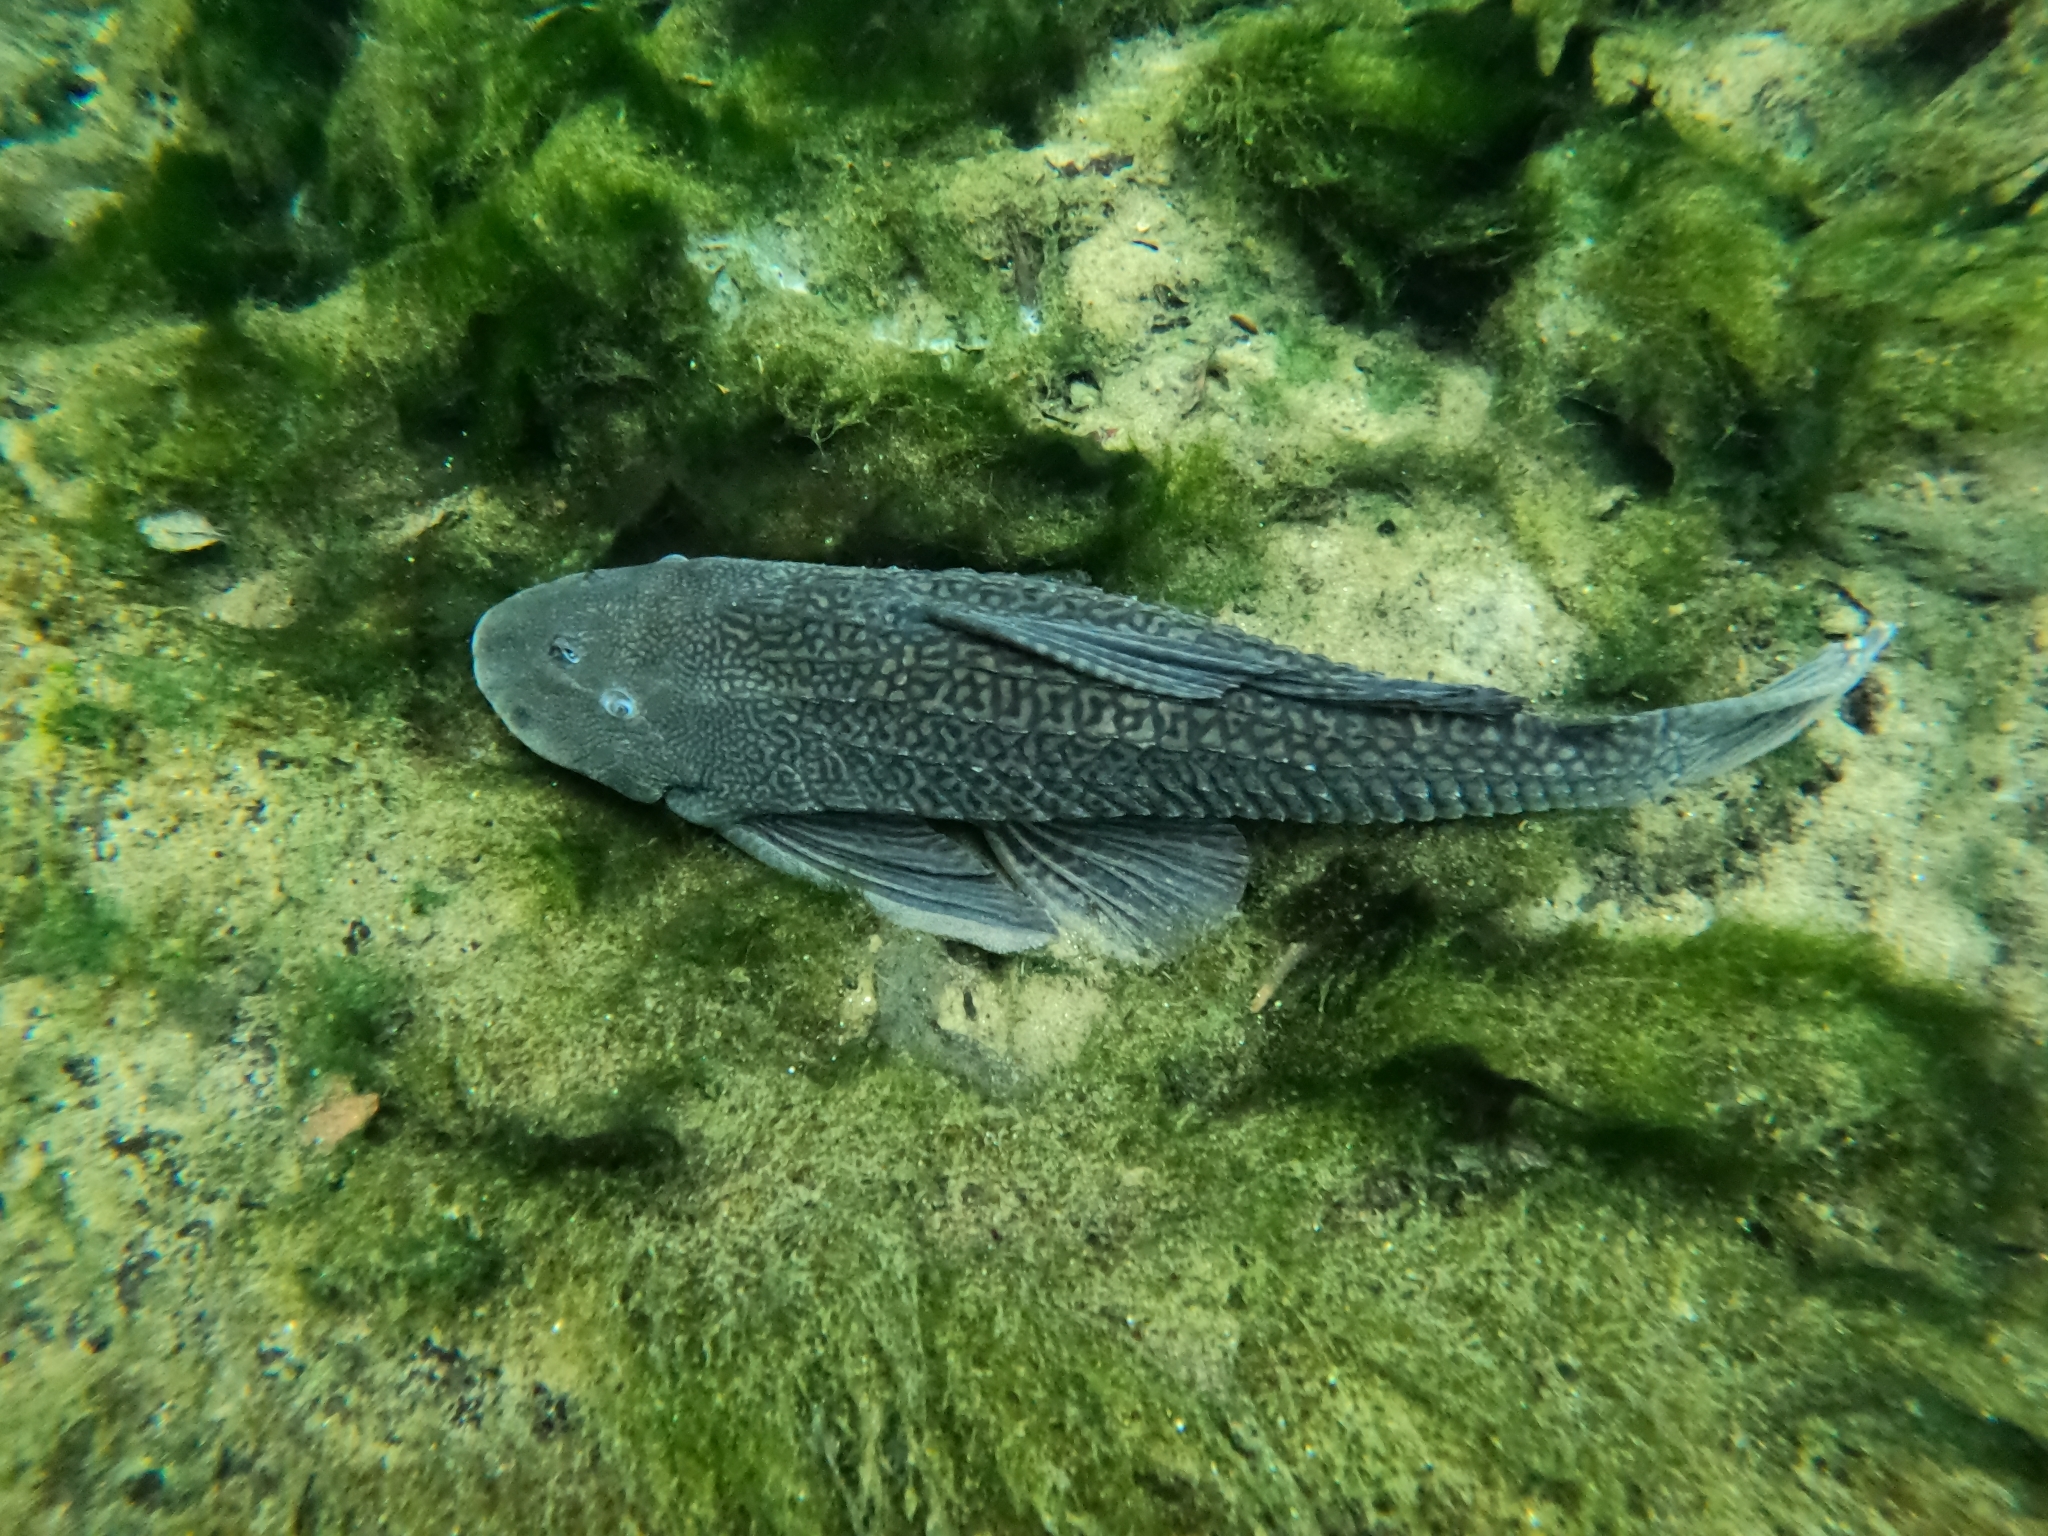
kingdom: Animalia
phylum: Chordata
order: Siluriformes
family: Loricariidae
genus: Pterygoplichthys
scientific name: Pterygoplichthys
